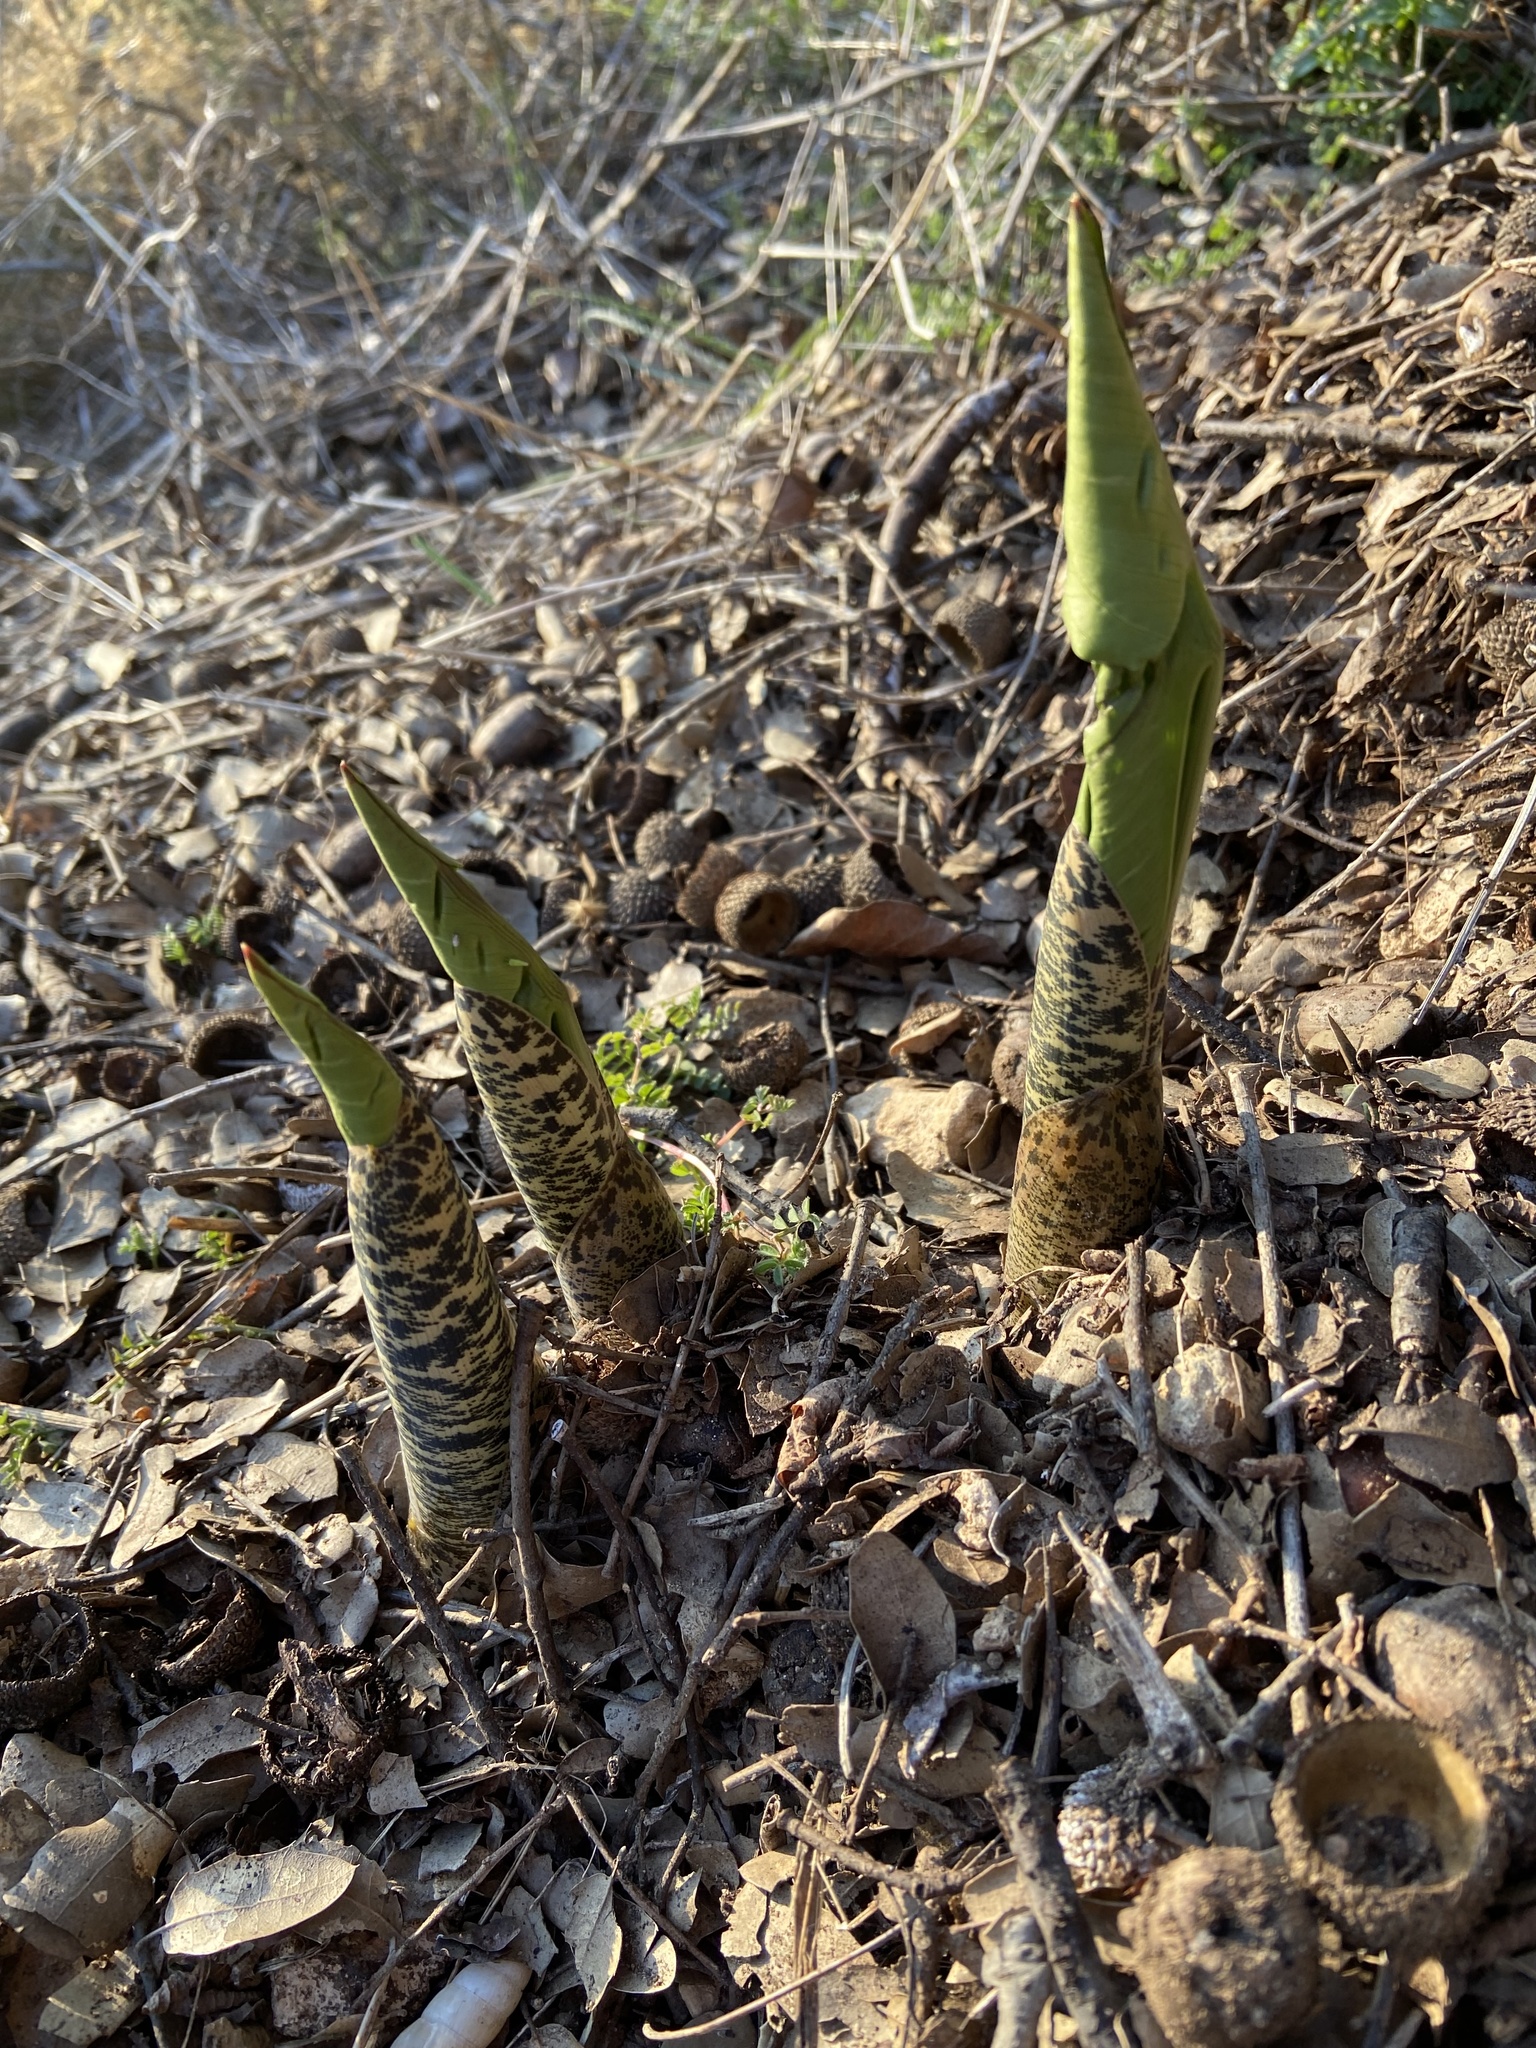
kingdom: Plantae
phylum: Tracheophyta
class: Liliopsida
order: Alismatales
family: Araceae
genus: Dracunculus
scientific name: Dracunculus vulgaris
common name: Dragon arum
